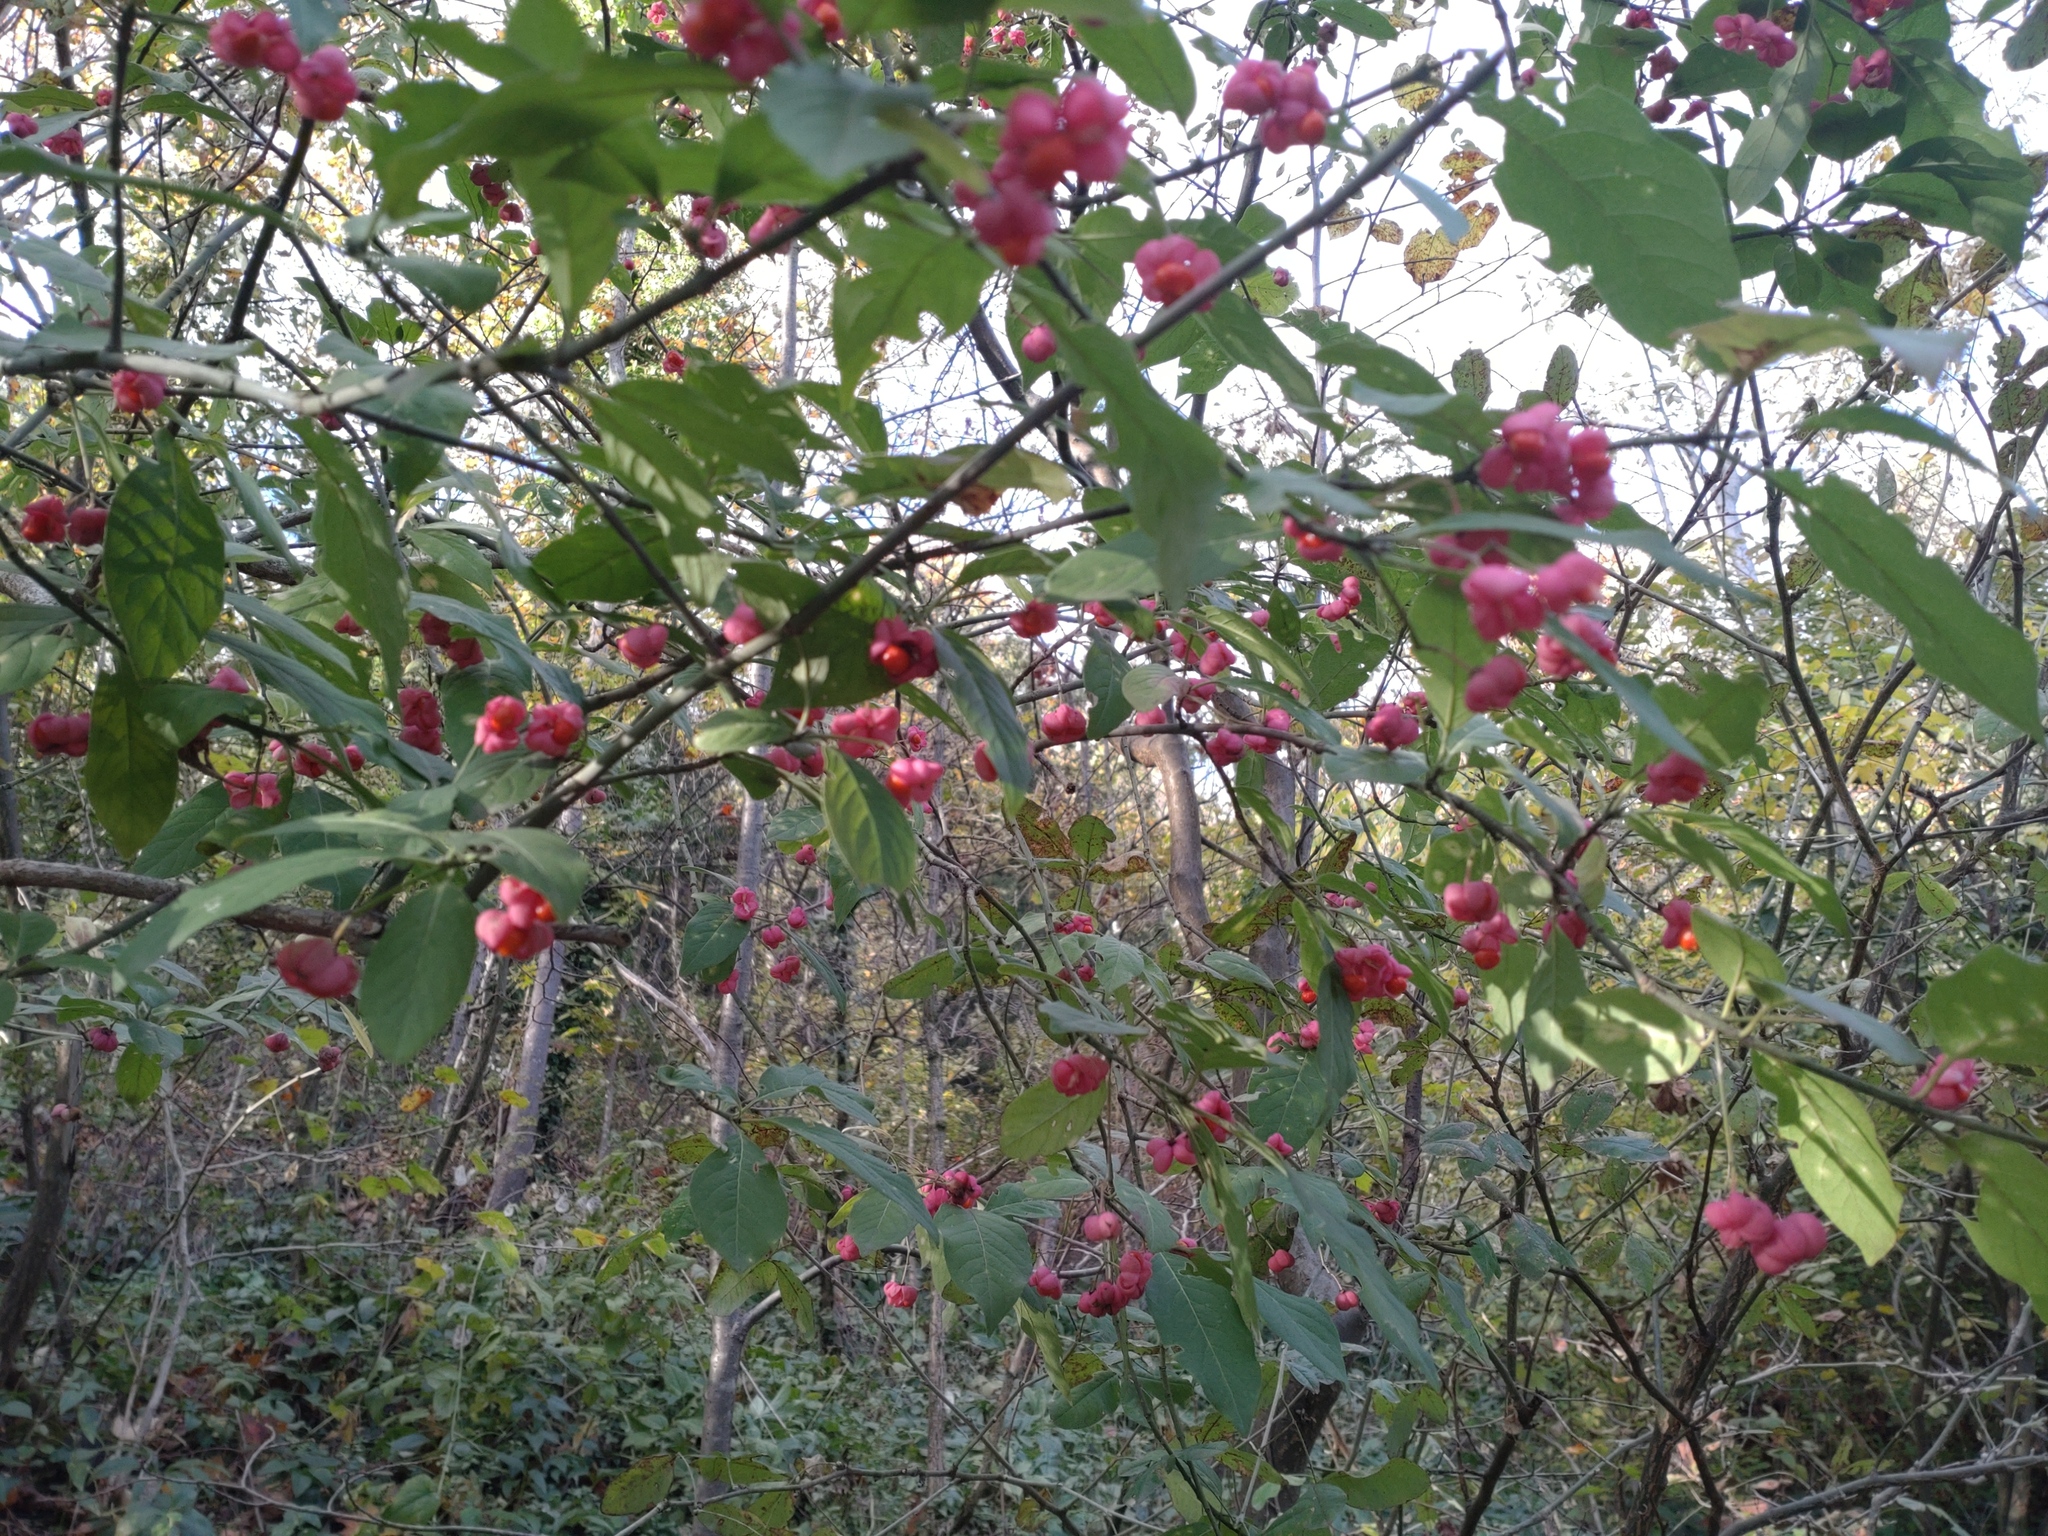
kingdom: Plantae
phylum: Tracheophyta
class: Magnoliopsida
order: Celastrales
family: Celastraceae
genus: Euonymus
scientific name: Euonymus europaeus
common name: Spindle
